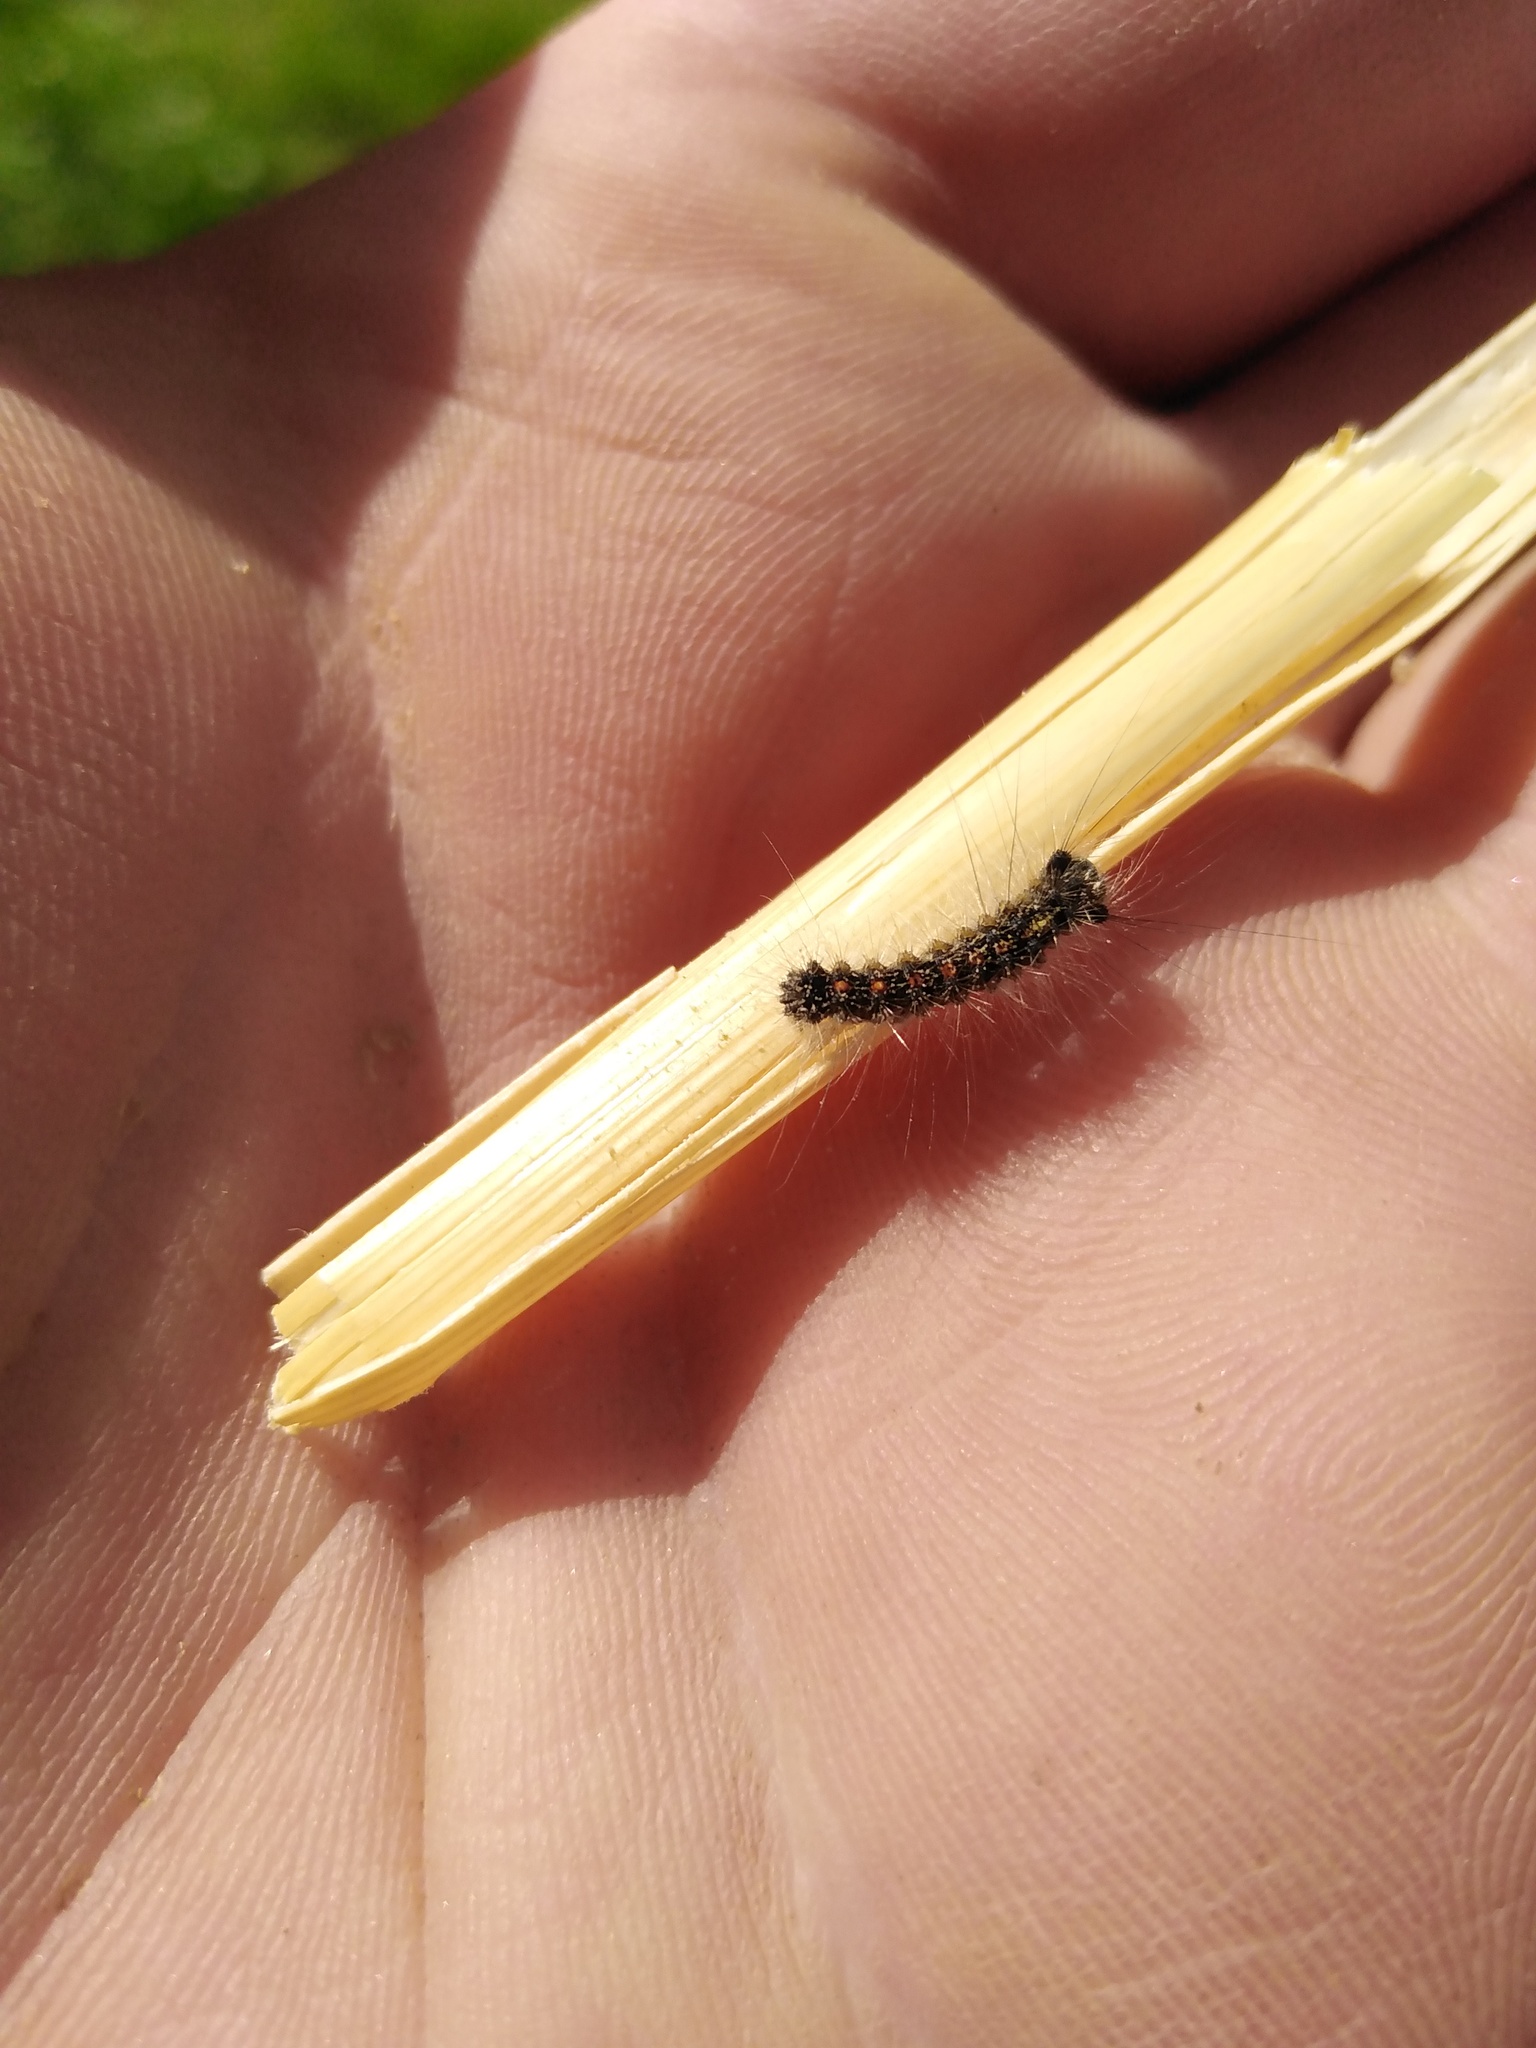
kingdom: Animalia
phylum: Arthropoda
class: Insecta
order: Lepidoptera
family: Erebidae
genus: Lymantria
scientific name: Lymantria dispar
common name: Gypsy moth
